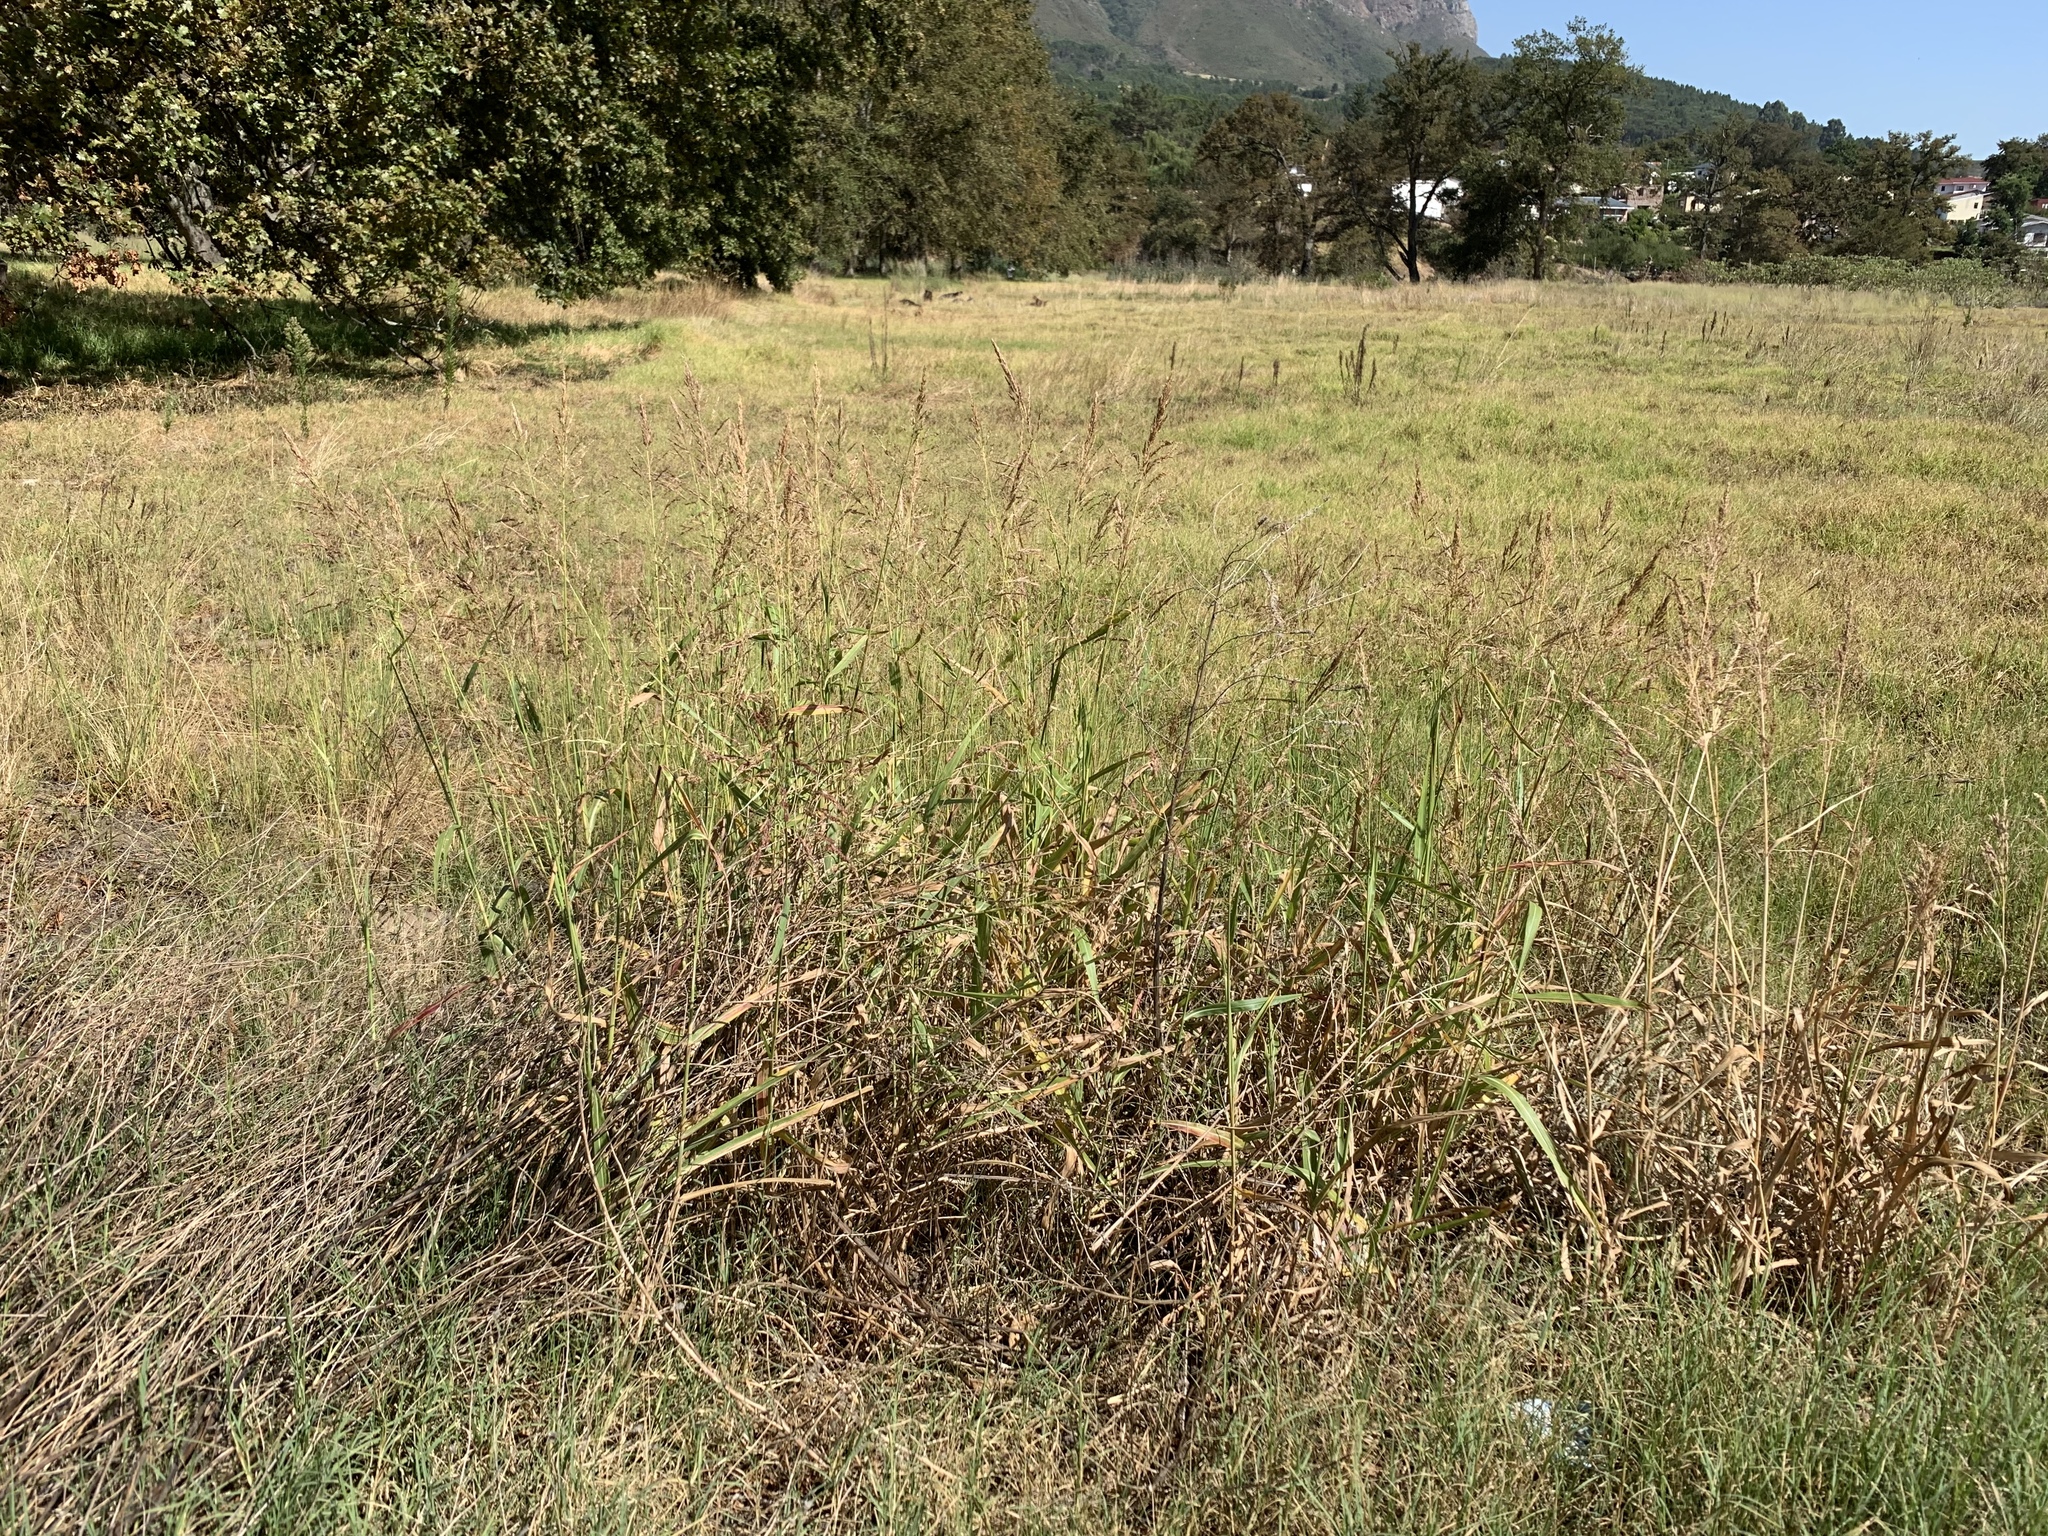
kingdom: Plantae
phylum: Tracheophyta
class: Liliopsida
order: Poales
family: Poaceae
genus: Sorghum
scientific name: Sorghum halepense
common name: Johnson-grass
